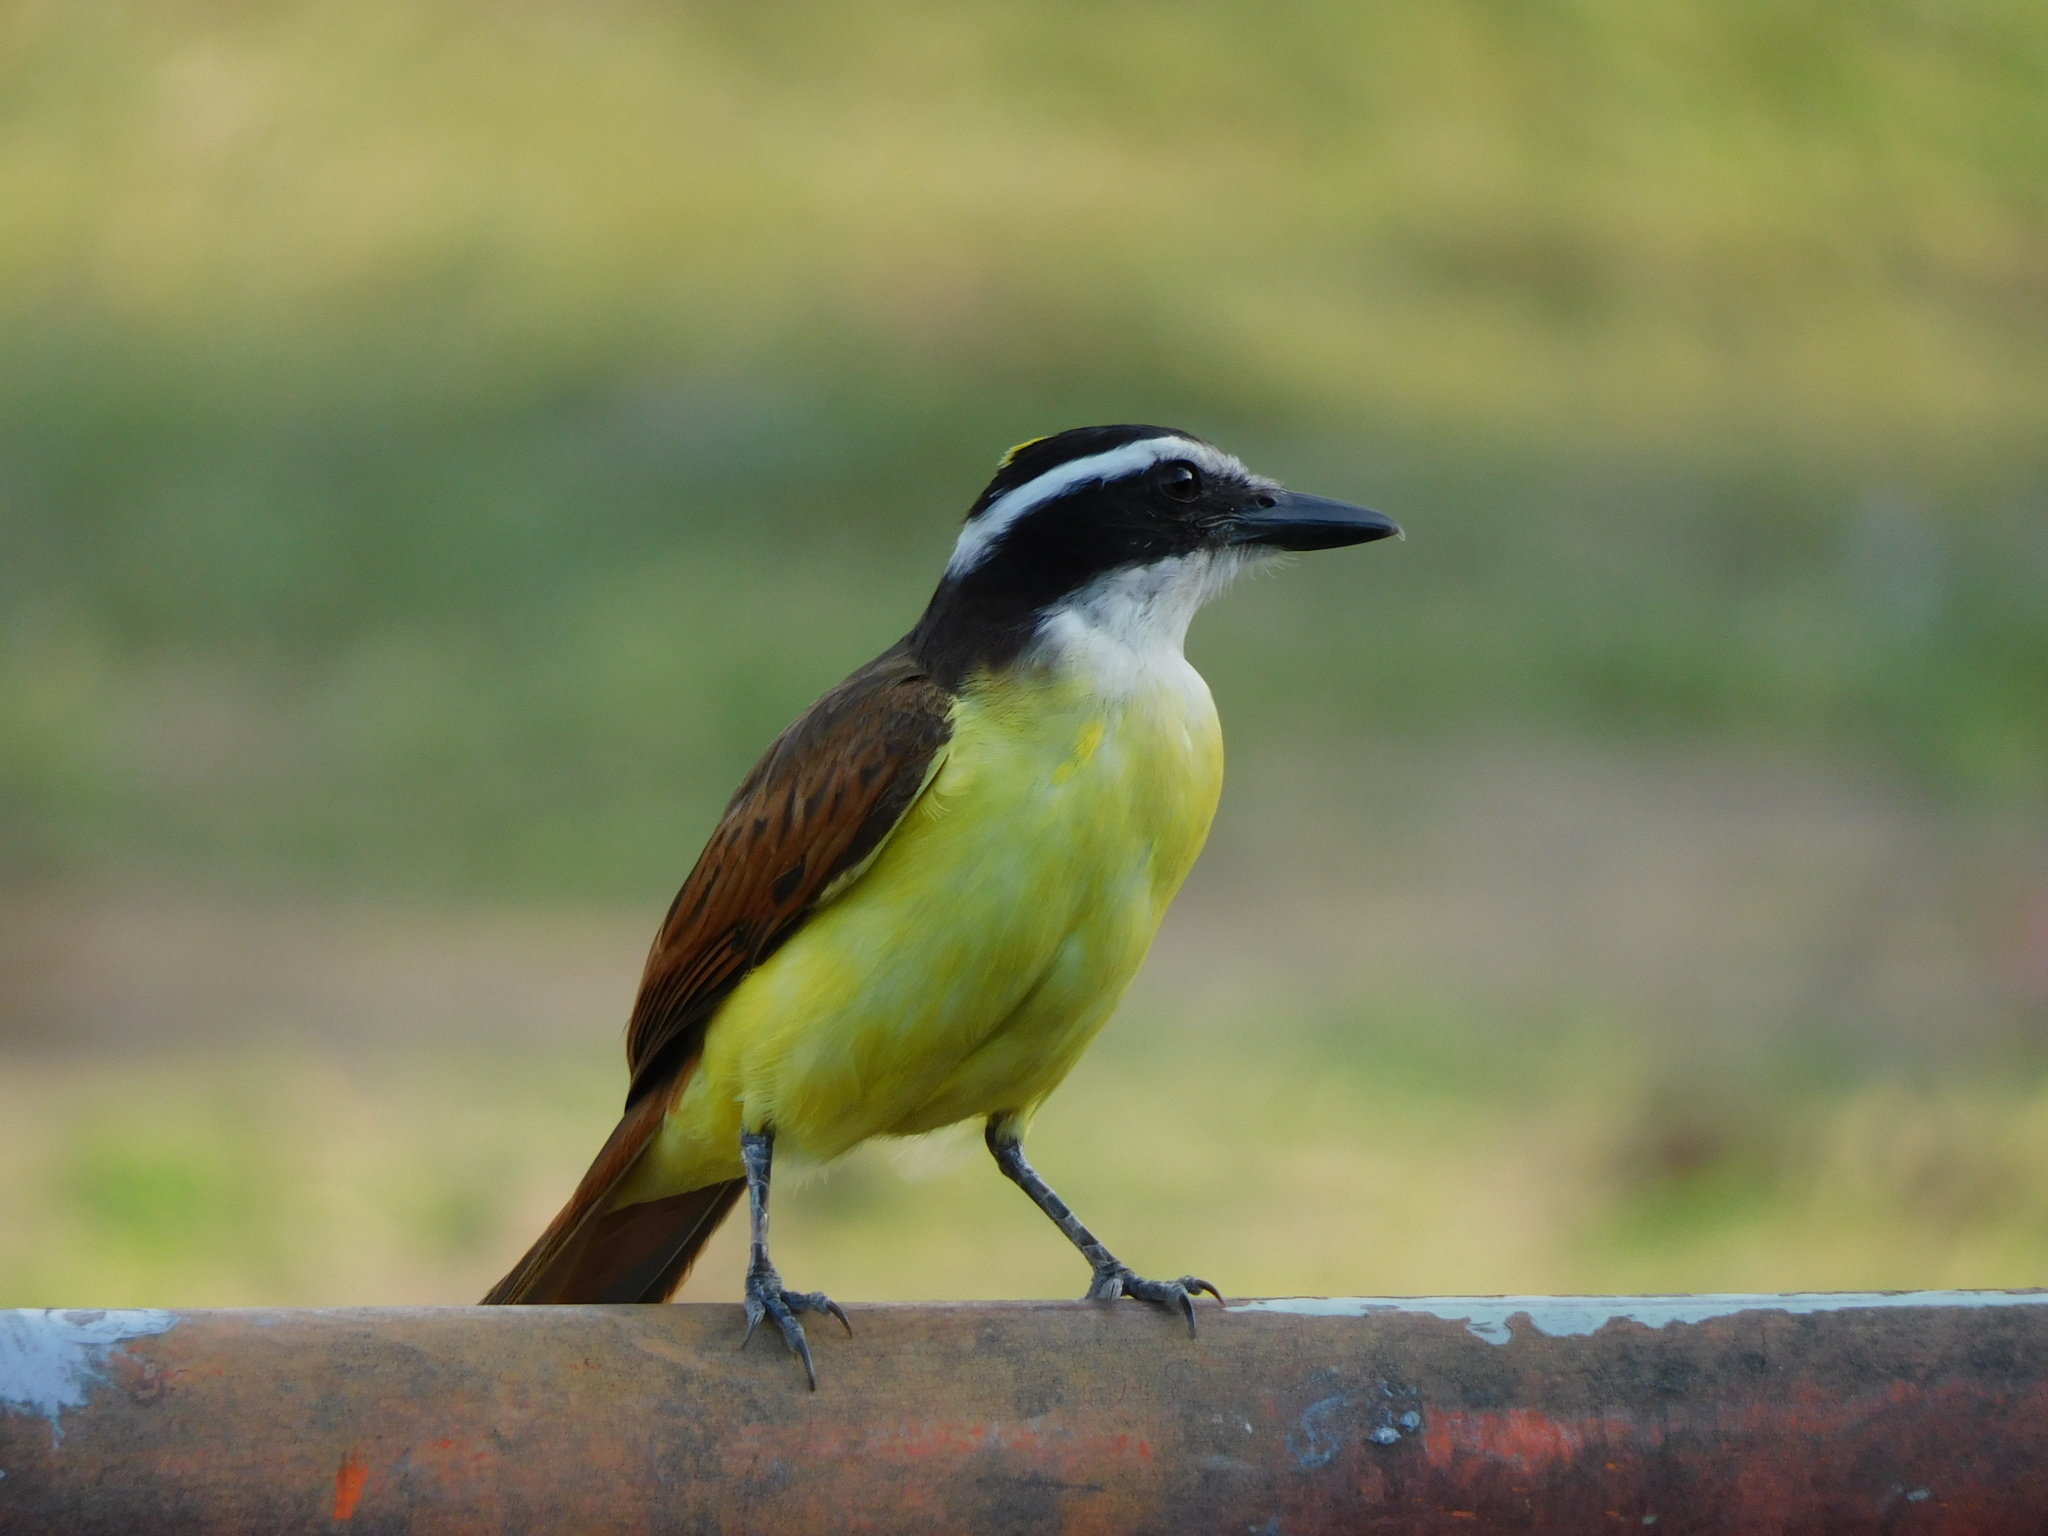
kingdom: Animalia
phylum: Chordata
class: Aves
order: Passeriformes
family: Tyrannidae
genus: Pitangus
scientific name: Pitangus sulphuratus
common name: Great kiskadee
